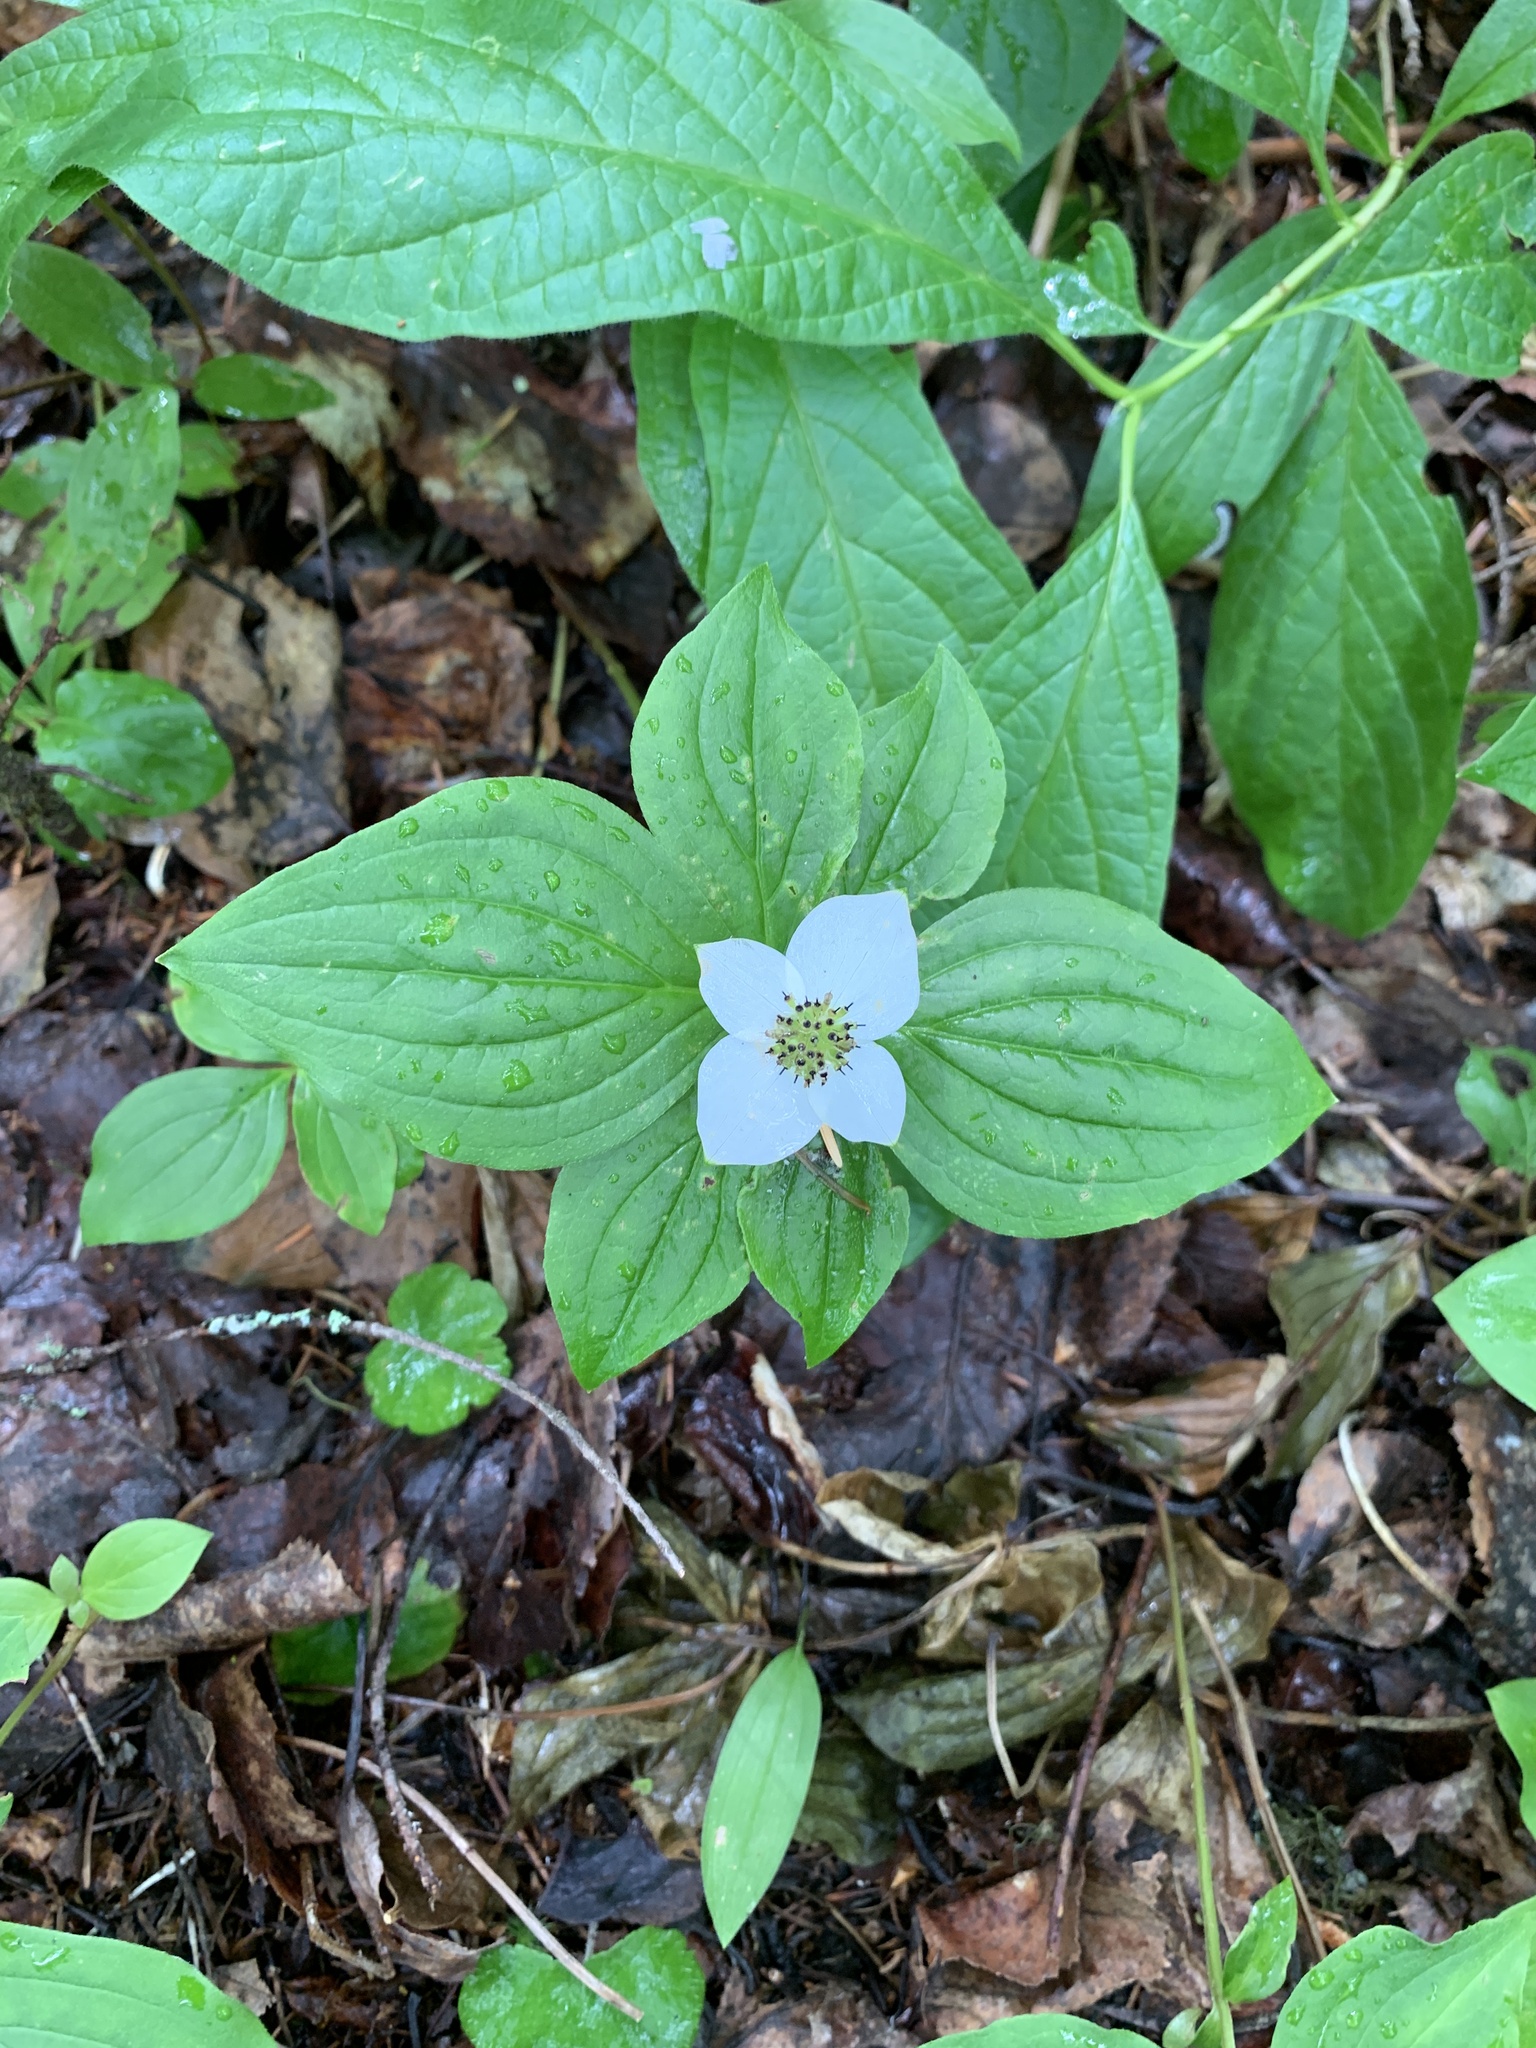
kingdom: Plantae
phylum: Tracheophyta
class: Magnoliopsida
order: Cornales
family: Cornaceae
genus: Cornus
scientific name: Cornus canadensis
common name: Creeping dogwood
